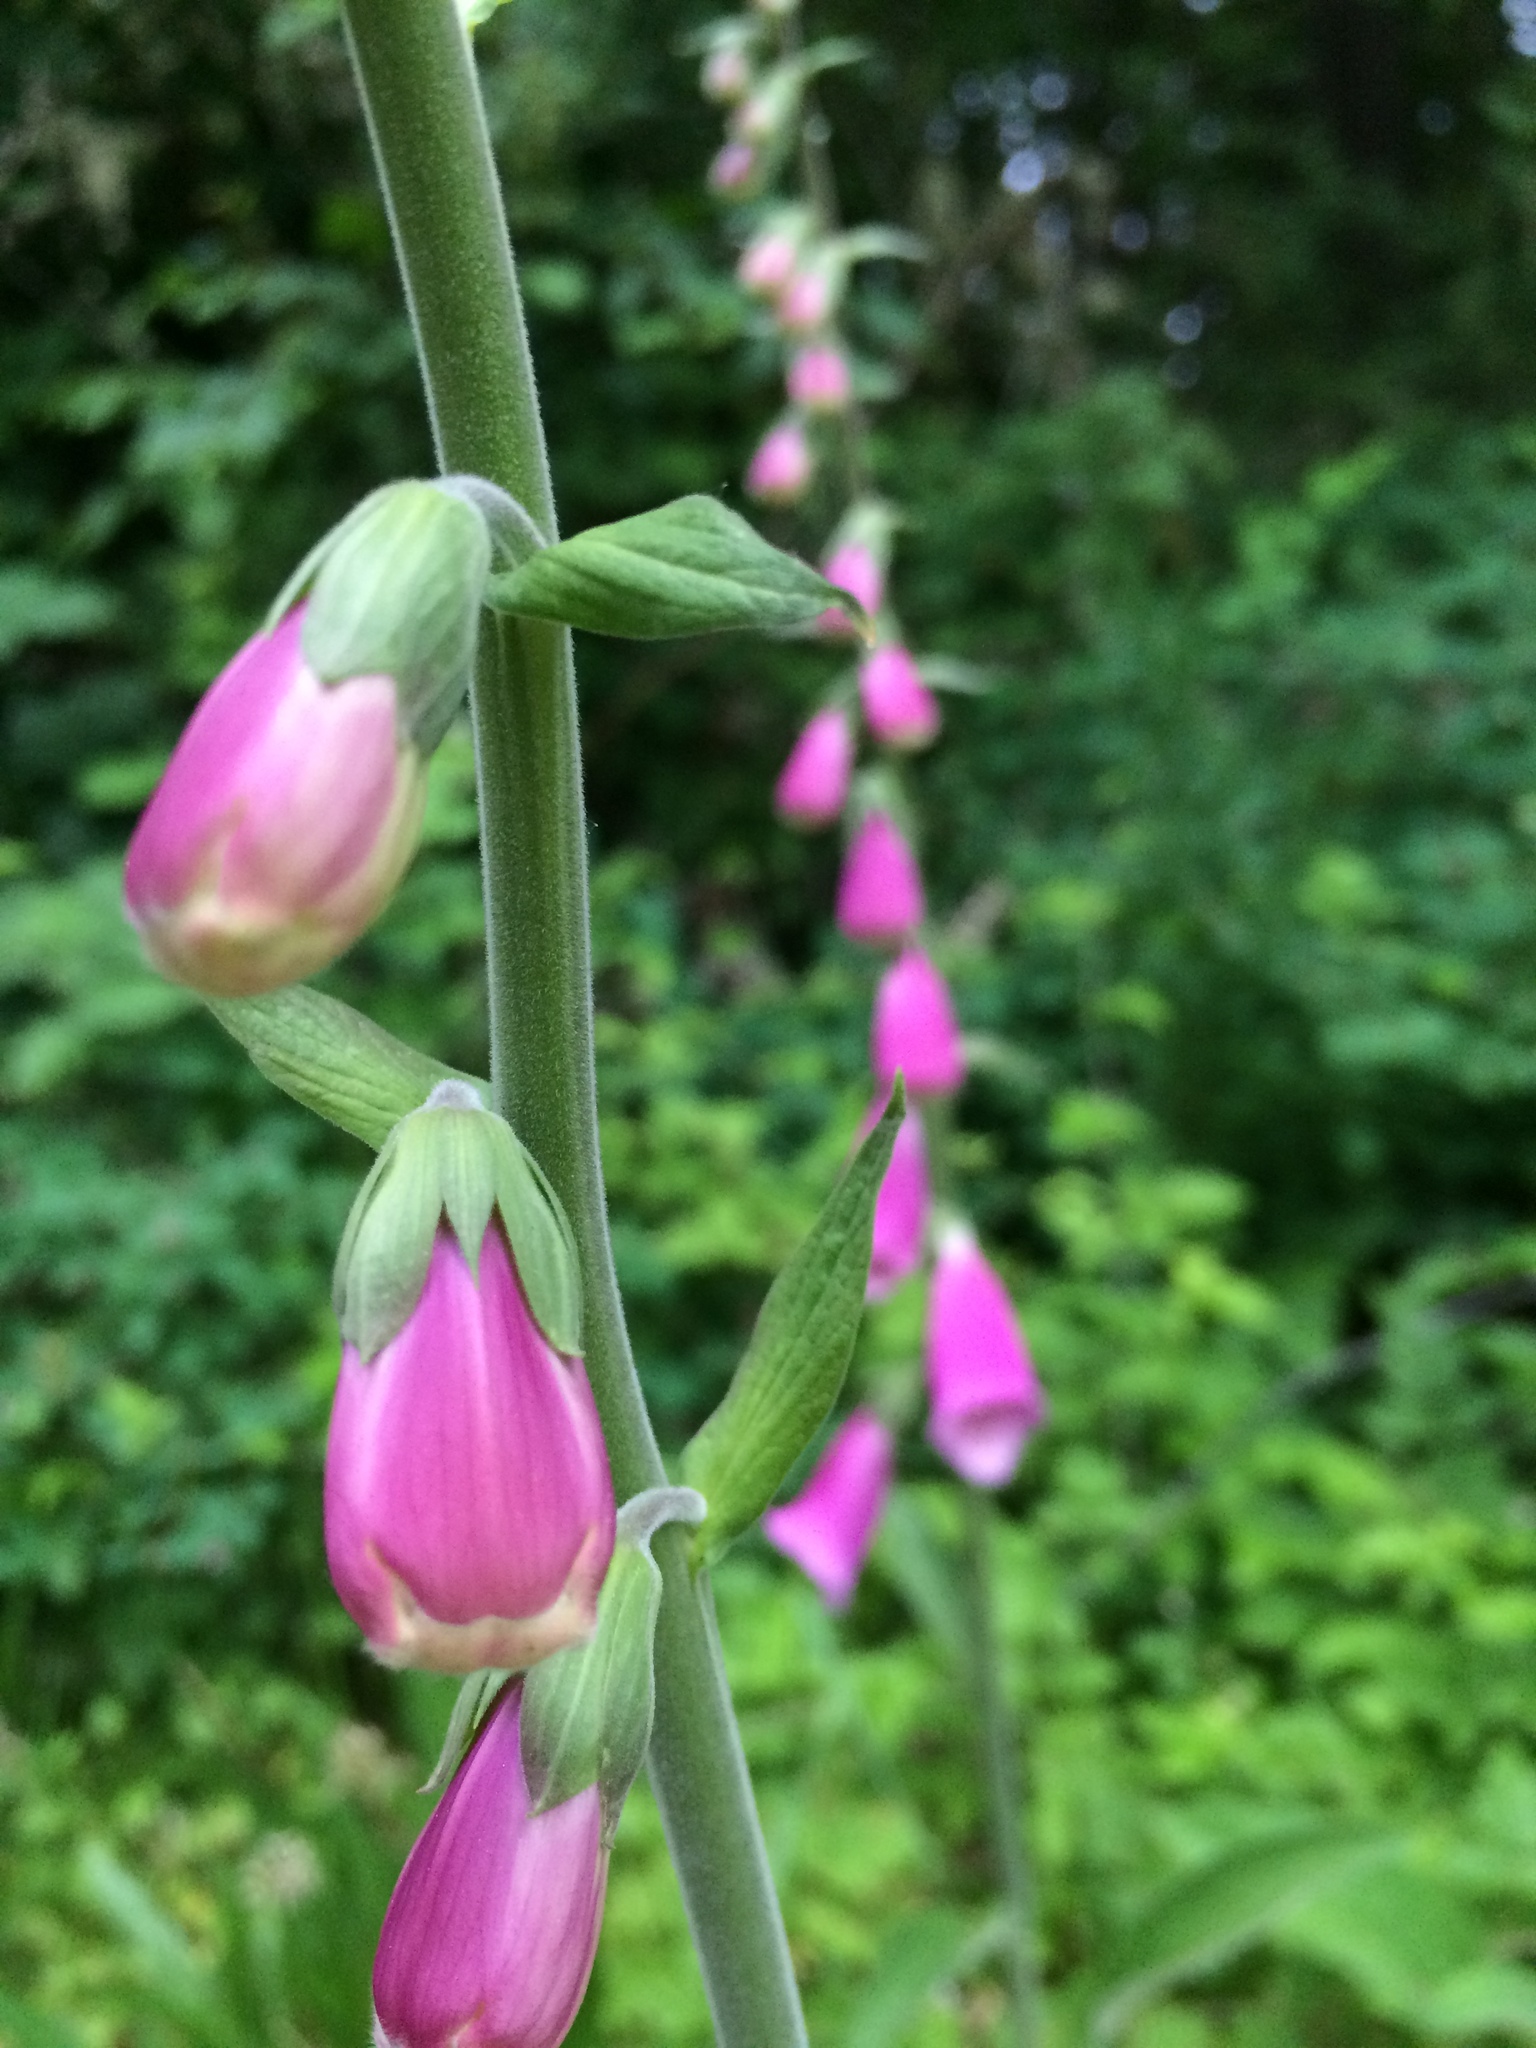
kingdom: Plantae
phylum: Tracheophyta
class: Magnoliopsida
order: Lamiales
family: Plantaginaceae
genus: Digitalis
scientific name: Digitalis purpurea
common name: Foxglove
